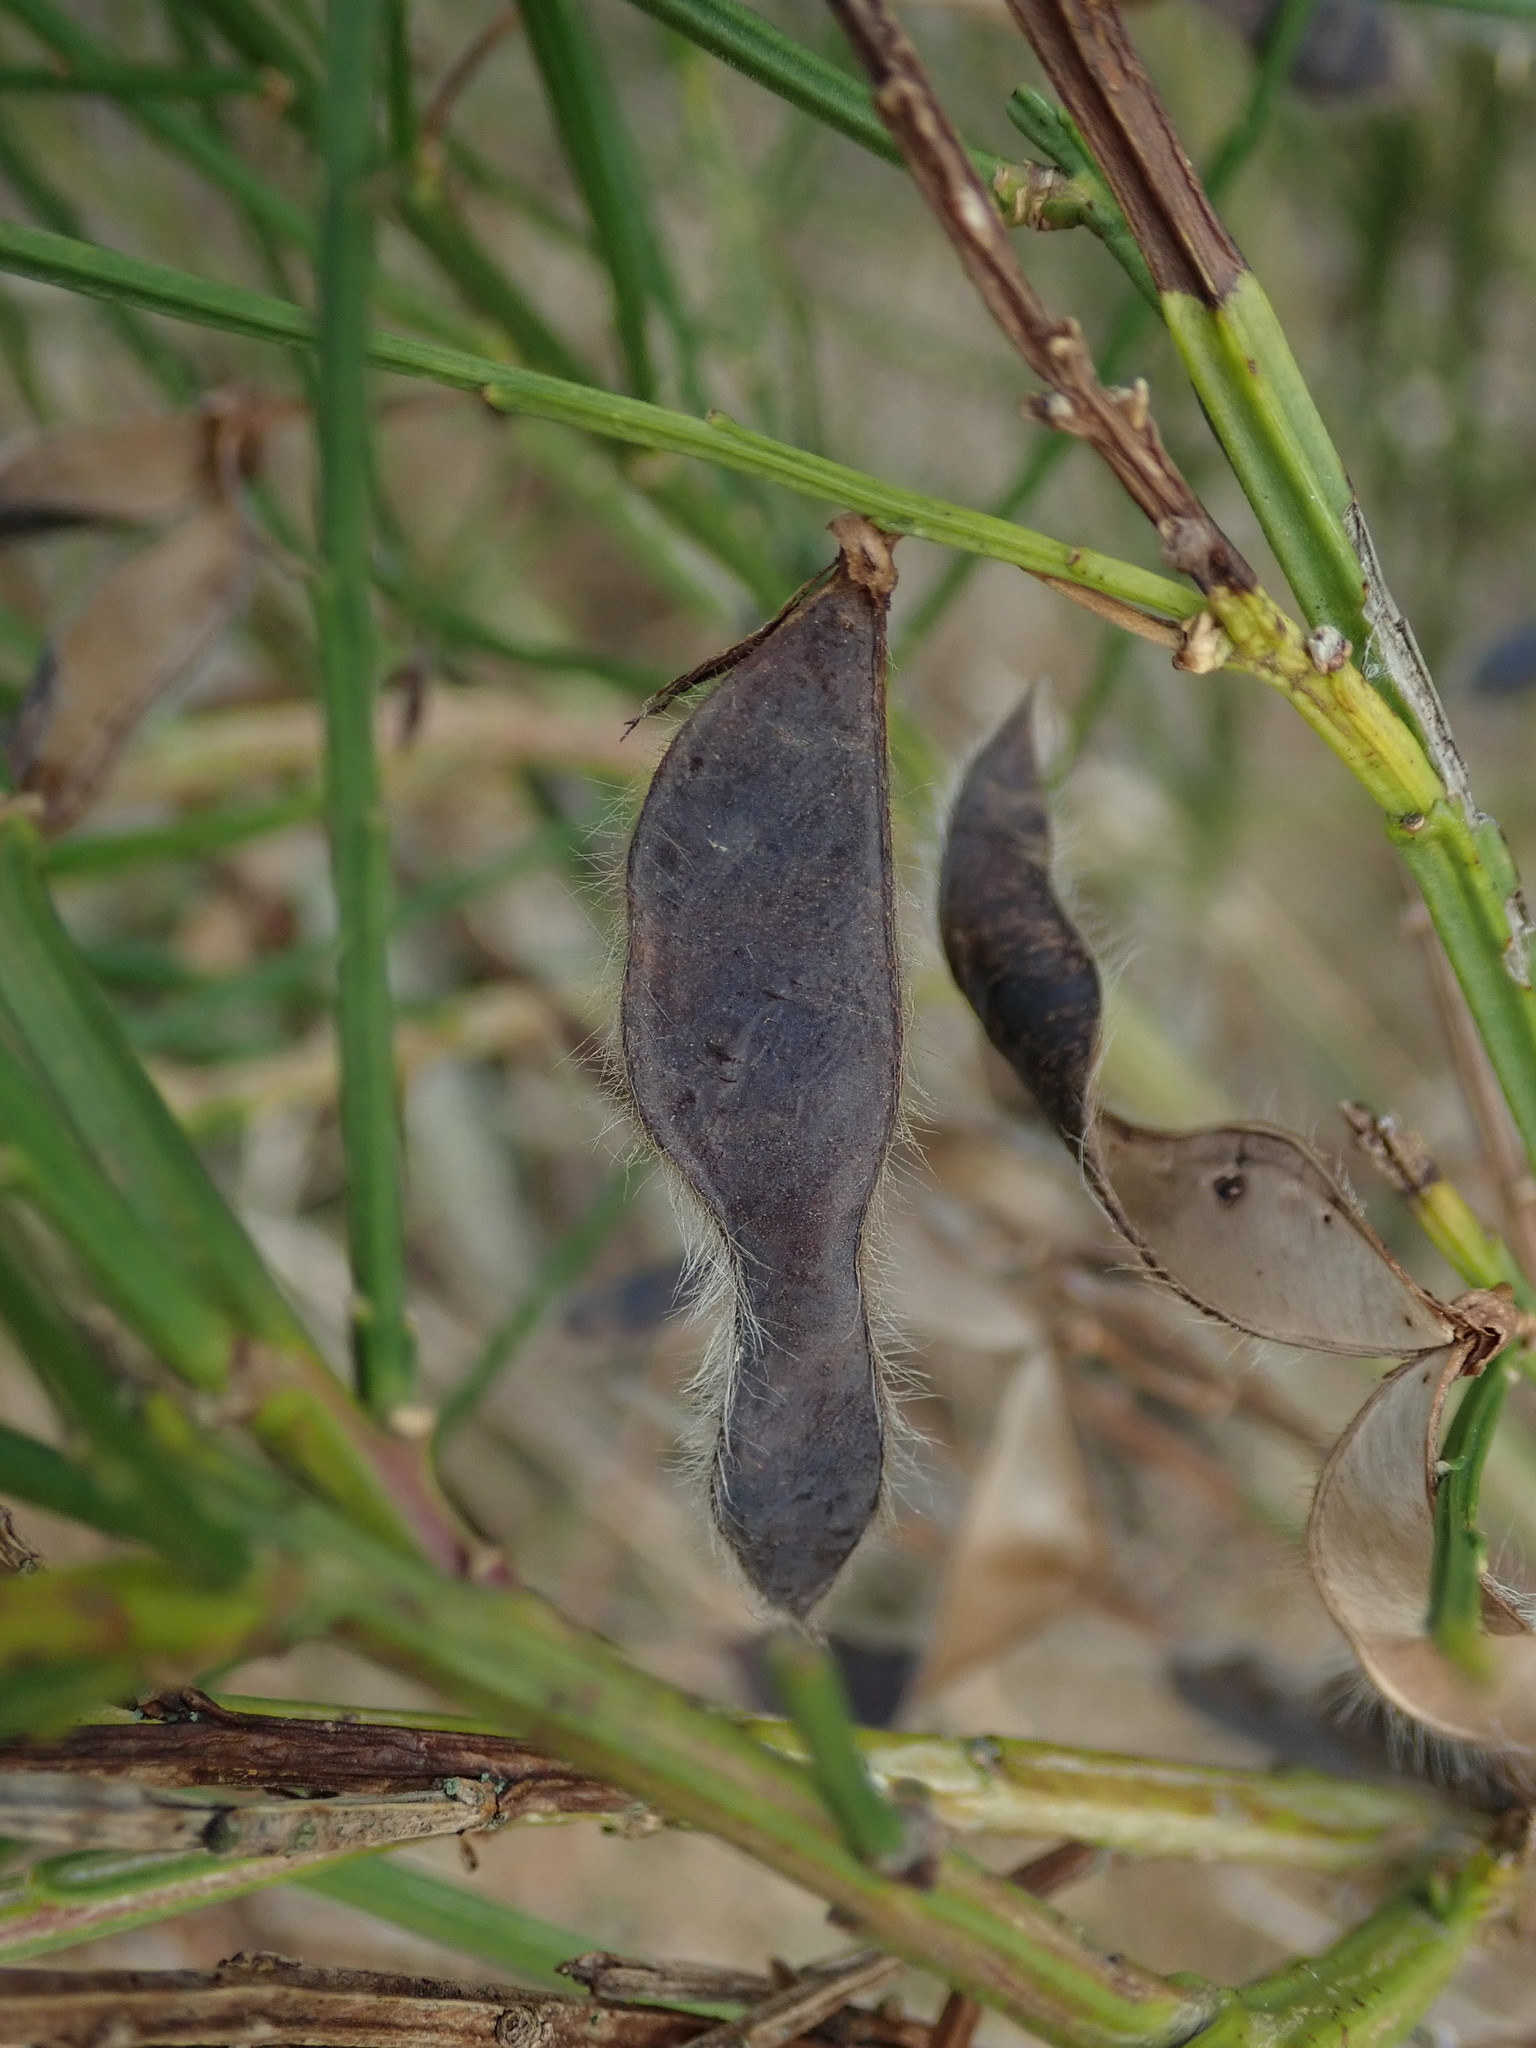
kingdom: Plantae
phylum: Tracheophyta
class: Magnoliopsida
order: Fabales
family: Fabaceae
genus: Cytisus
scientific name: Cytisus scoparius
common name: Scotch broom
